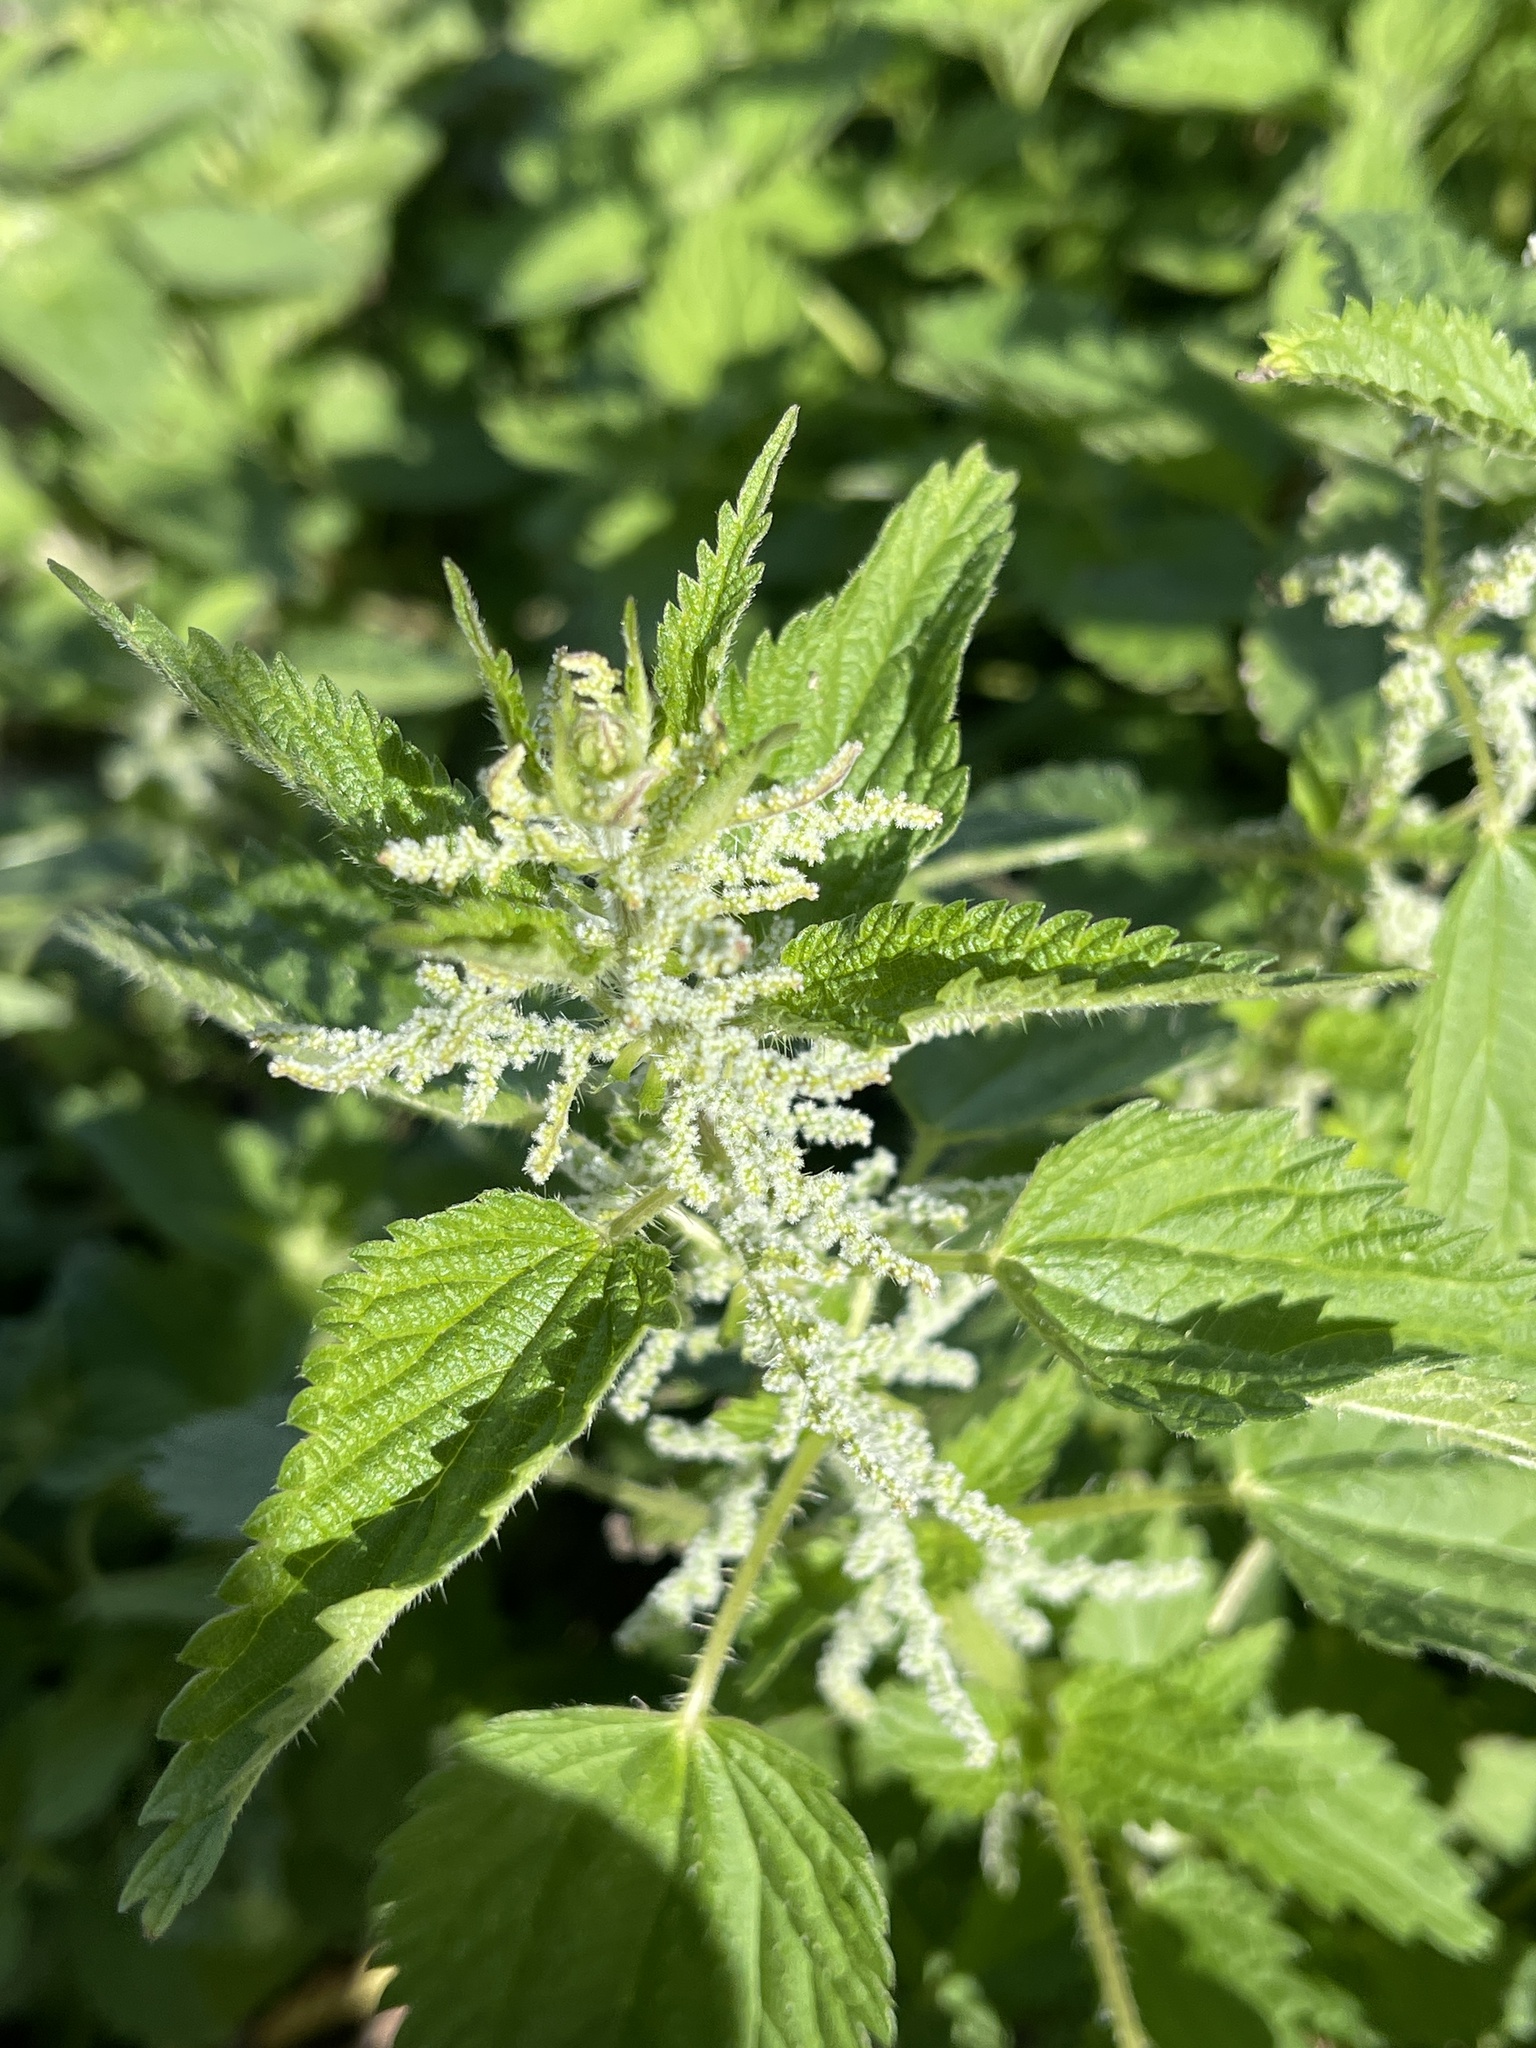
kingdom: Plantae
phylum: Tracheophyta
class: Magnoliopsida
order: Rosales
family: Urticaceae
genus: Urtica
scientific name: Urtica dioica
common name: Common nettle
